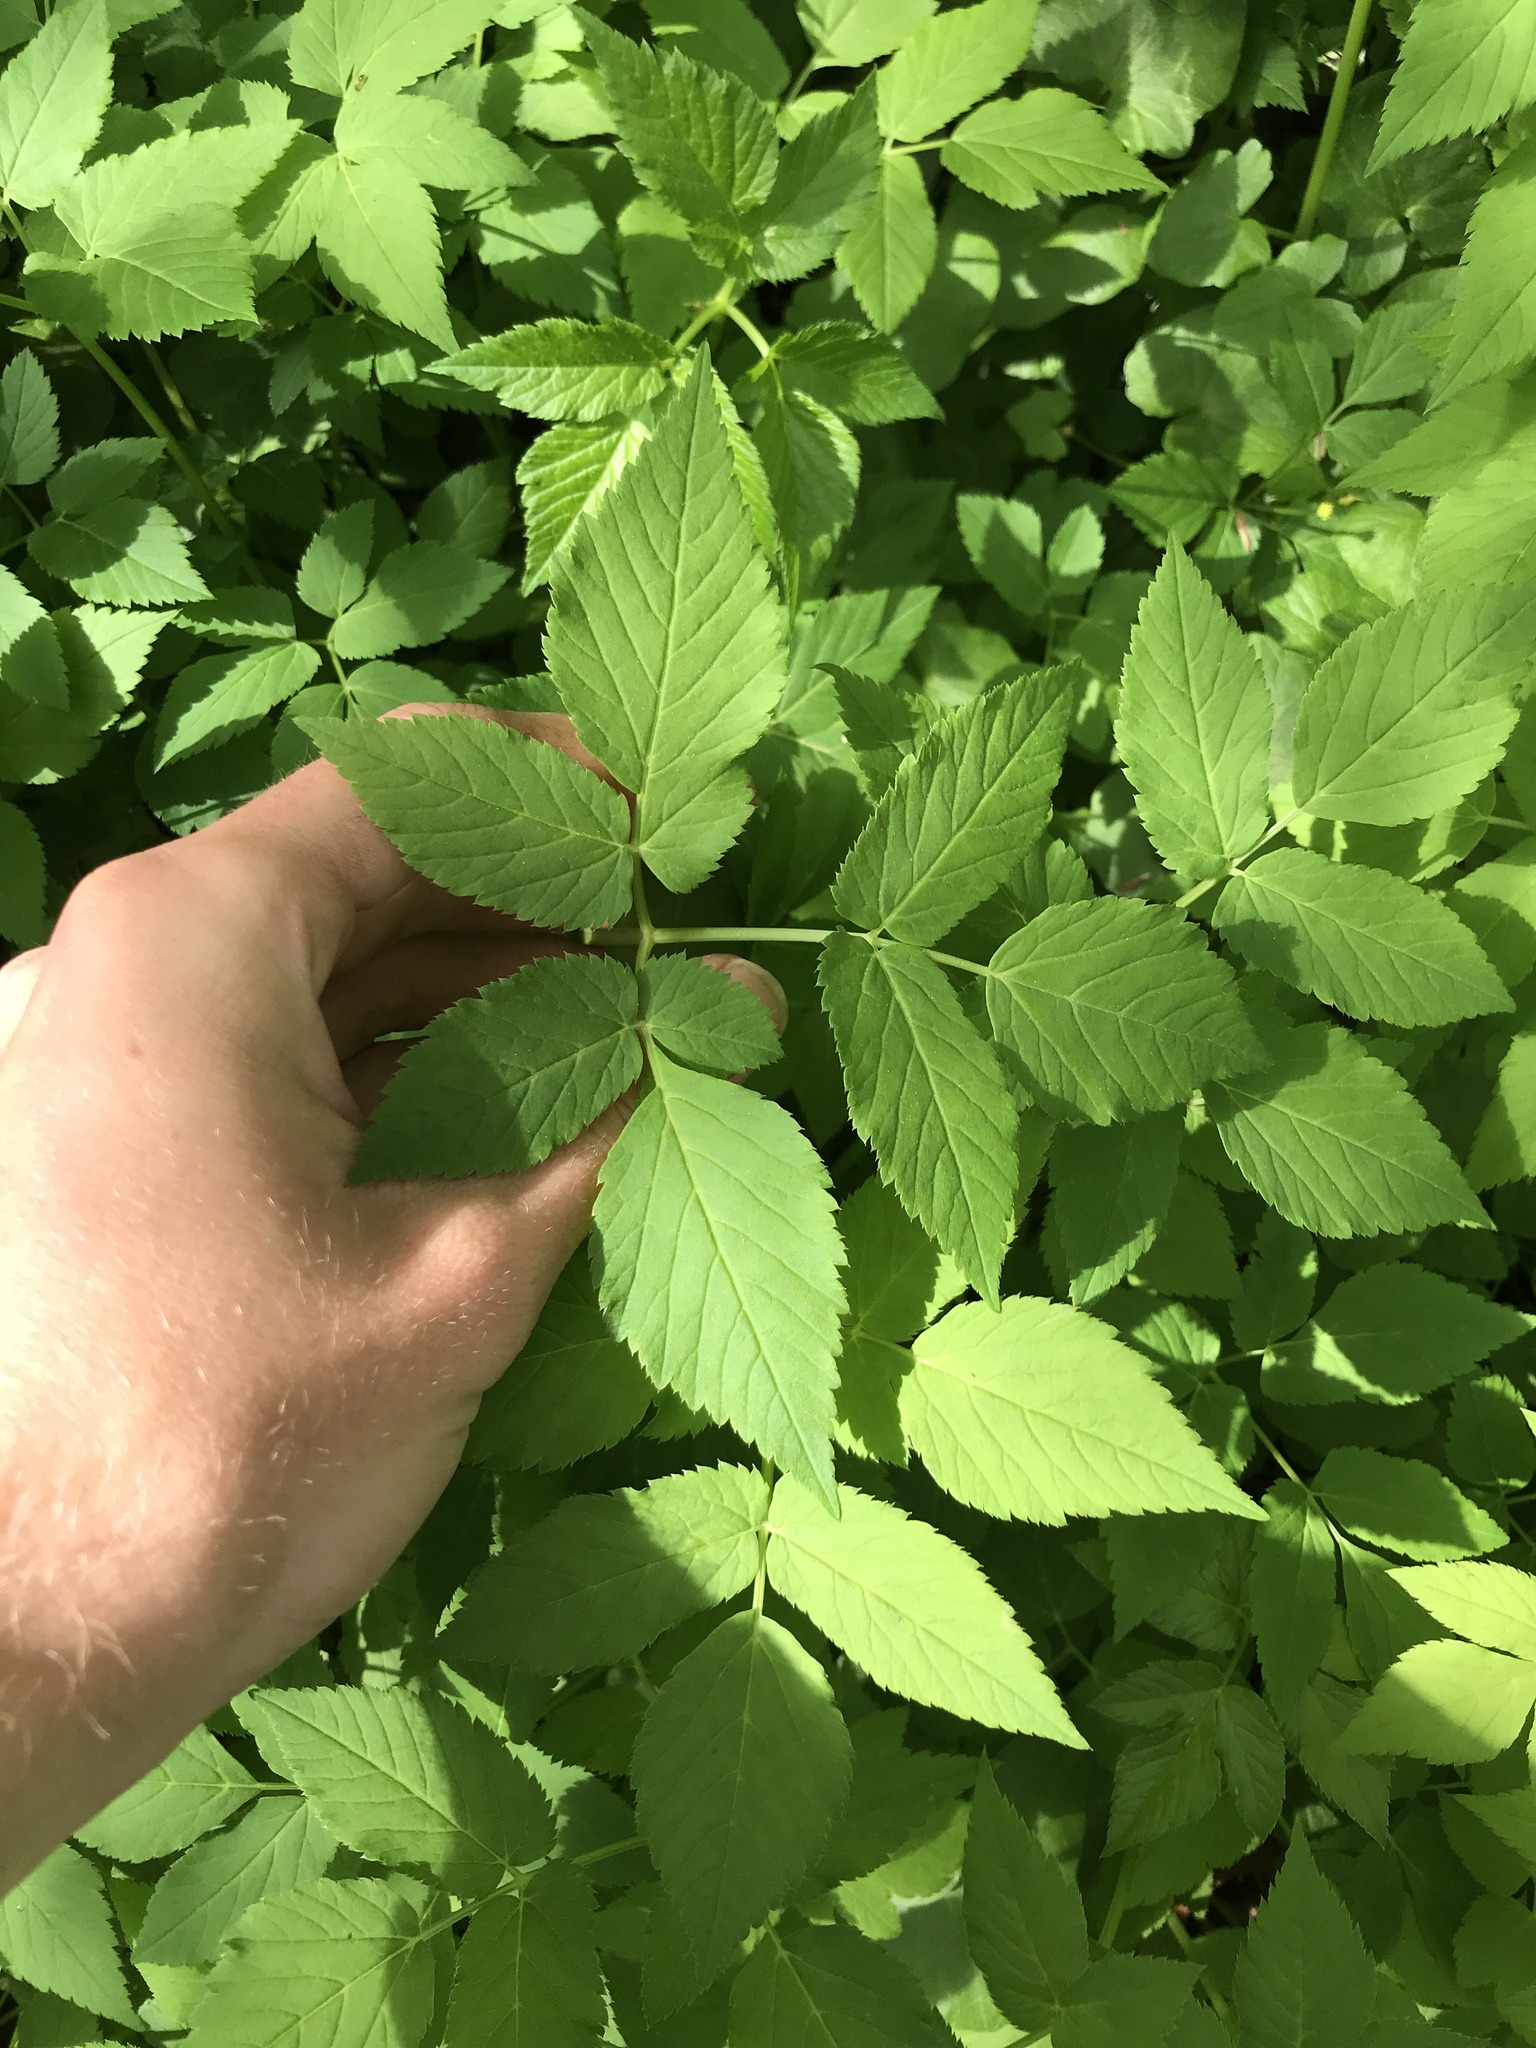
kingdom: Plantae
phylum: Tracheophyta
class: Magnoliopsida
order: Apiales
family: Apiaceae
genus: Aegopodium
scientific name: Aegopodium podagraria
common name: Ground-elder
